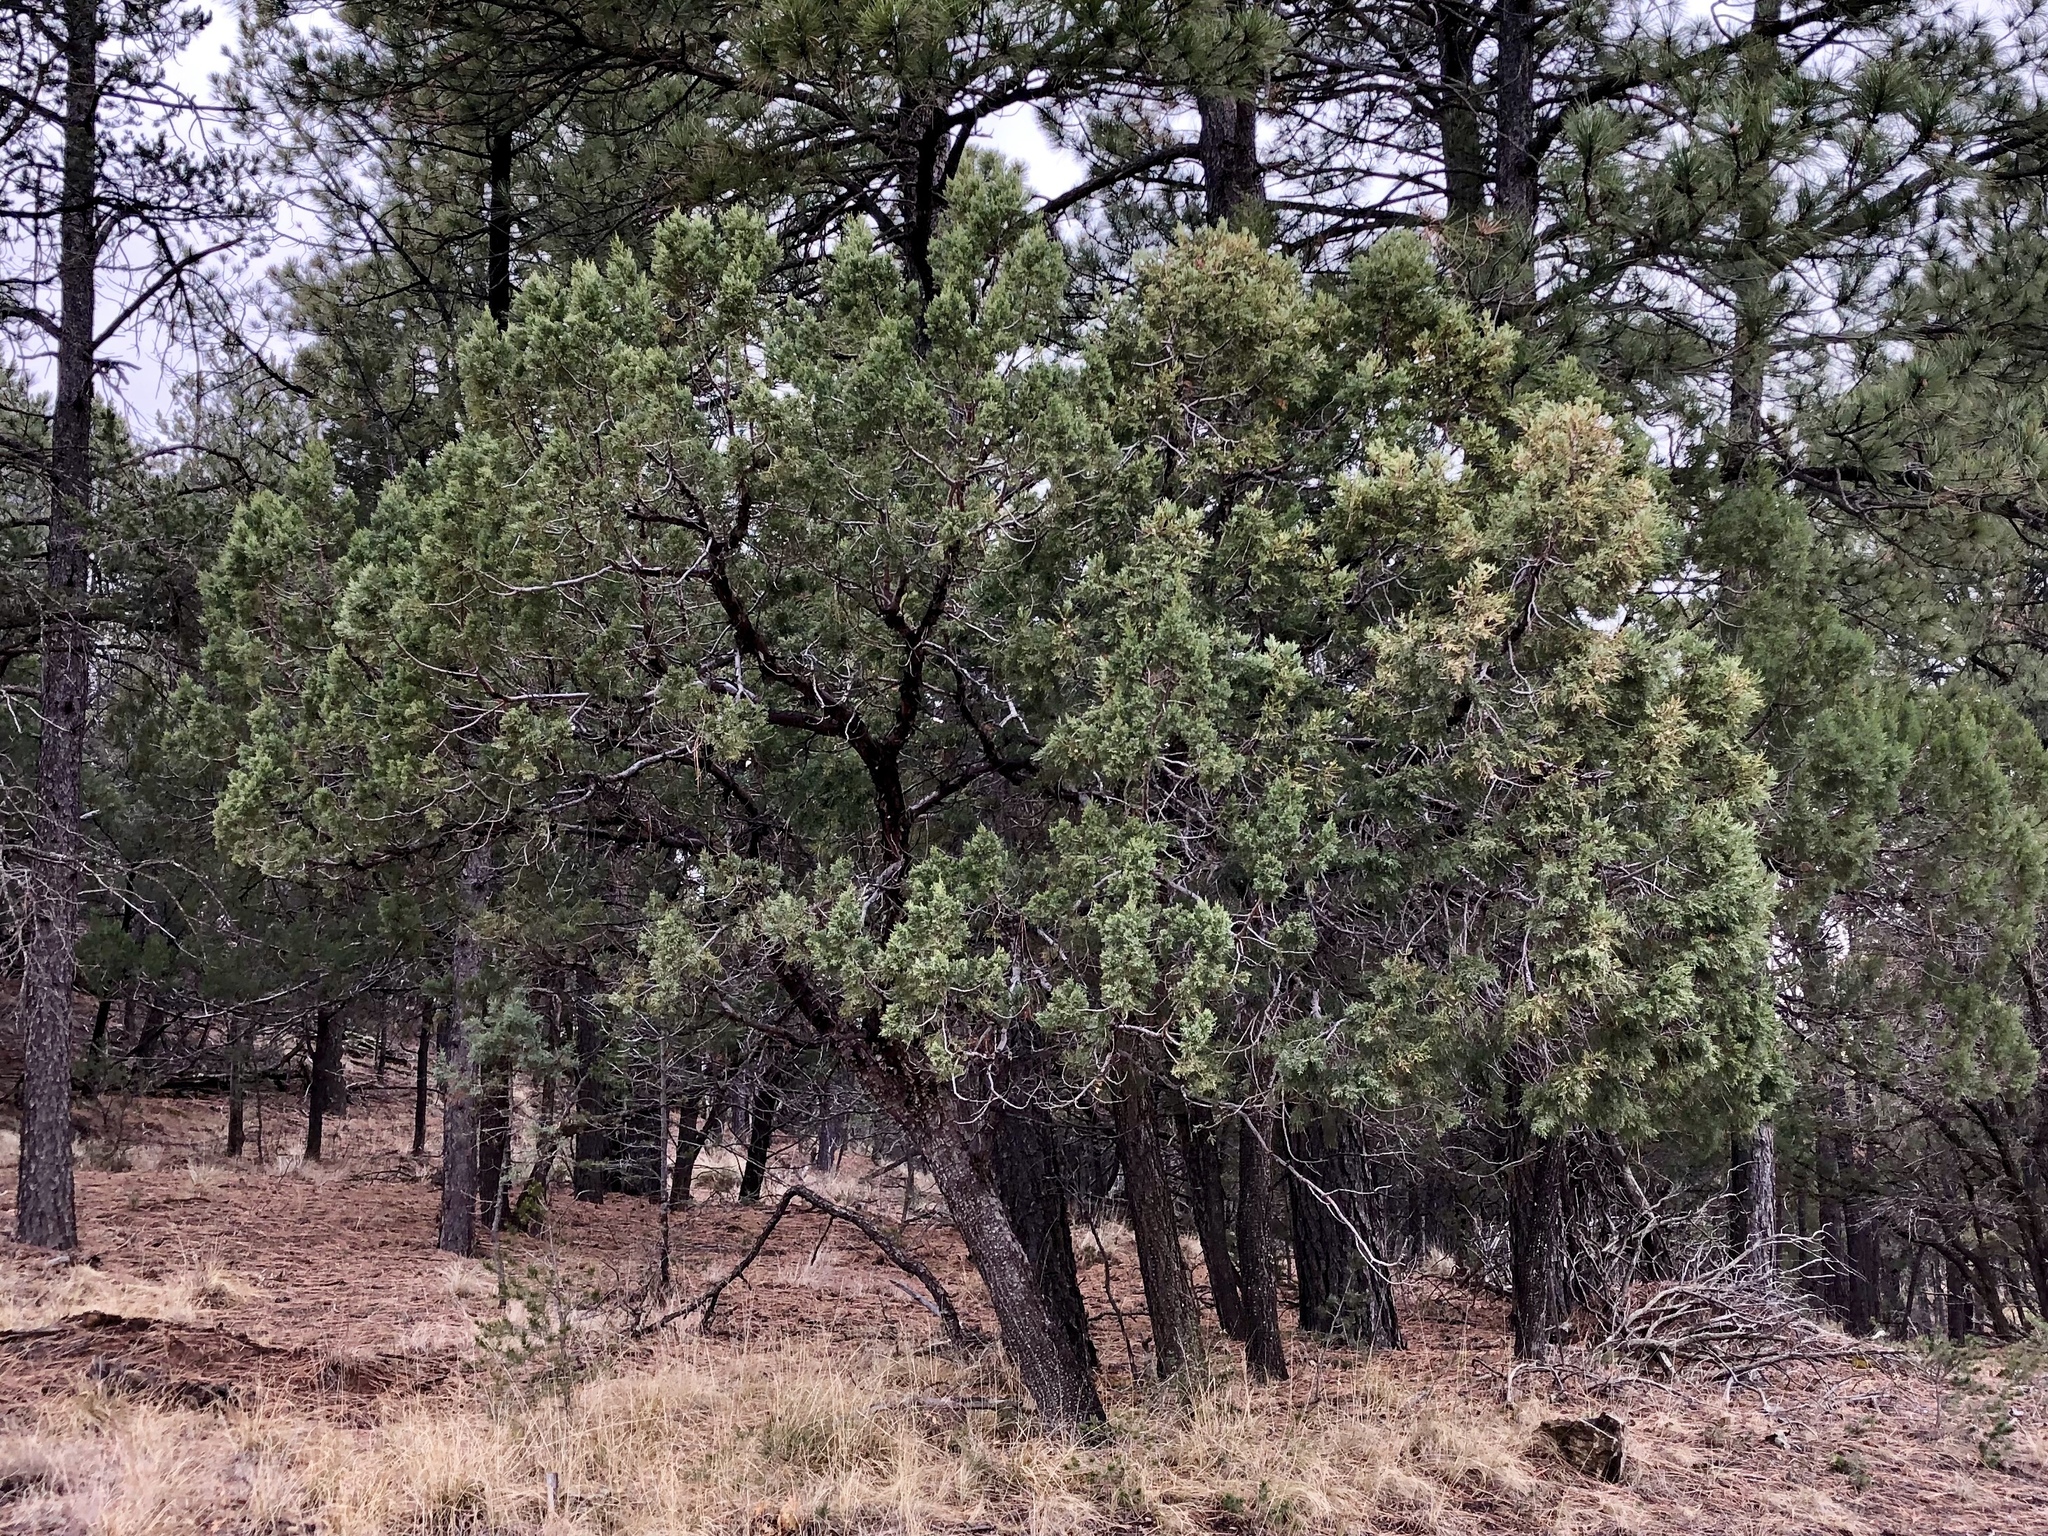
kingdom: Plantae
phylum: Tracheophyta
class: Pinopsida
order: Pinales
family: Cupressaceae
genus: Juniperus
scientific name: Juniperus deppeana
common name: Alligator juniper
